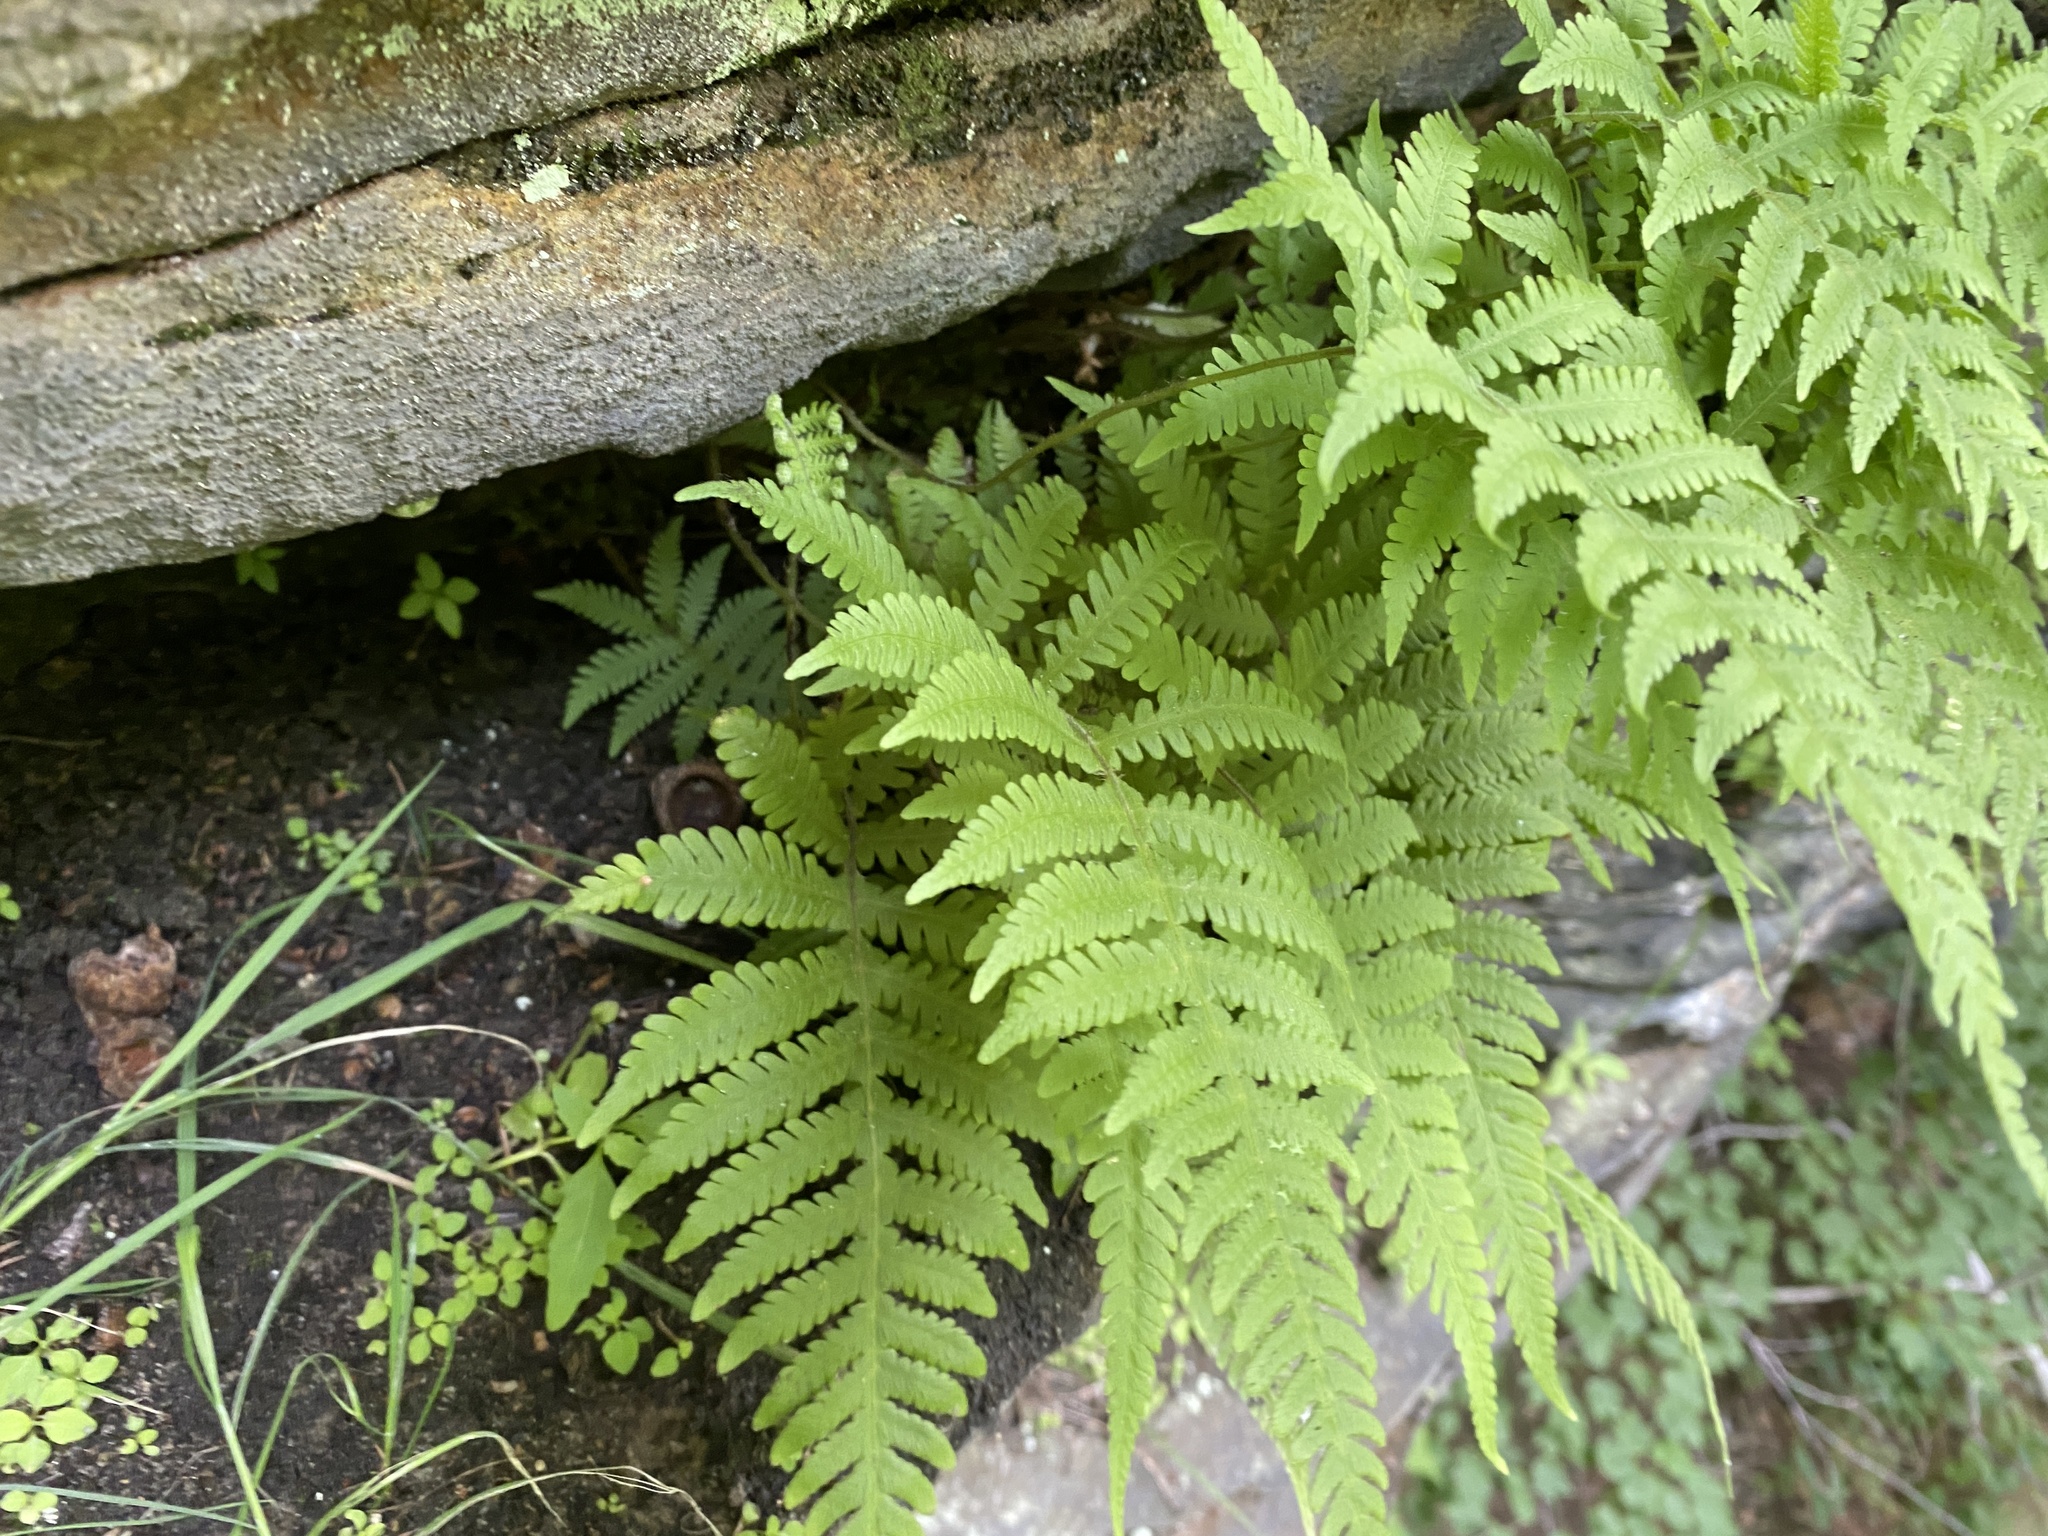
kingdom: Plantae
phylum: Tracheophyta
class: Polypodiopsida
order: Polypodiales
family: Thelypteridaceae
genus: Phegopteris
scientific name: Phegopteris connectilis
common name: Beech fern
